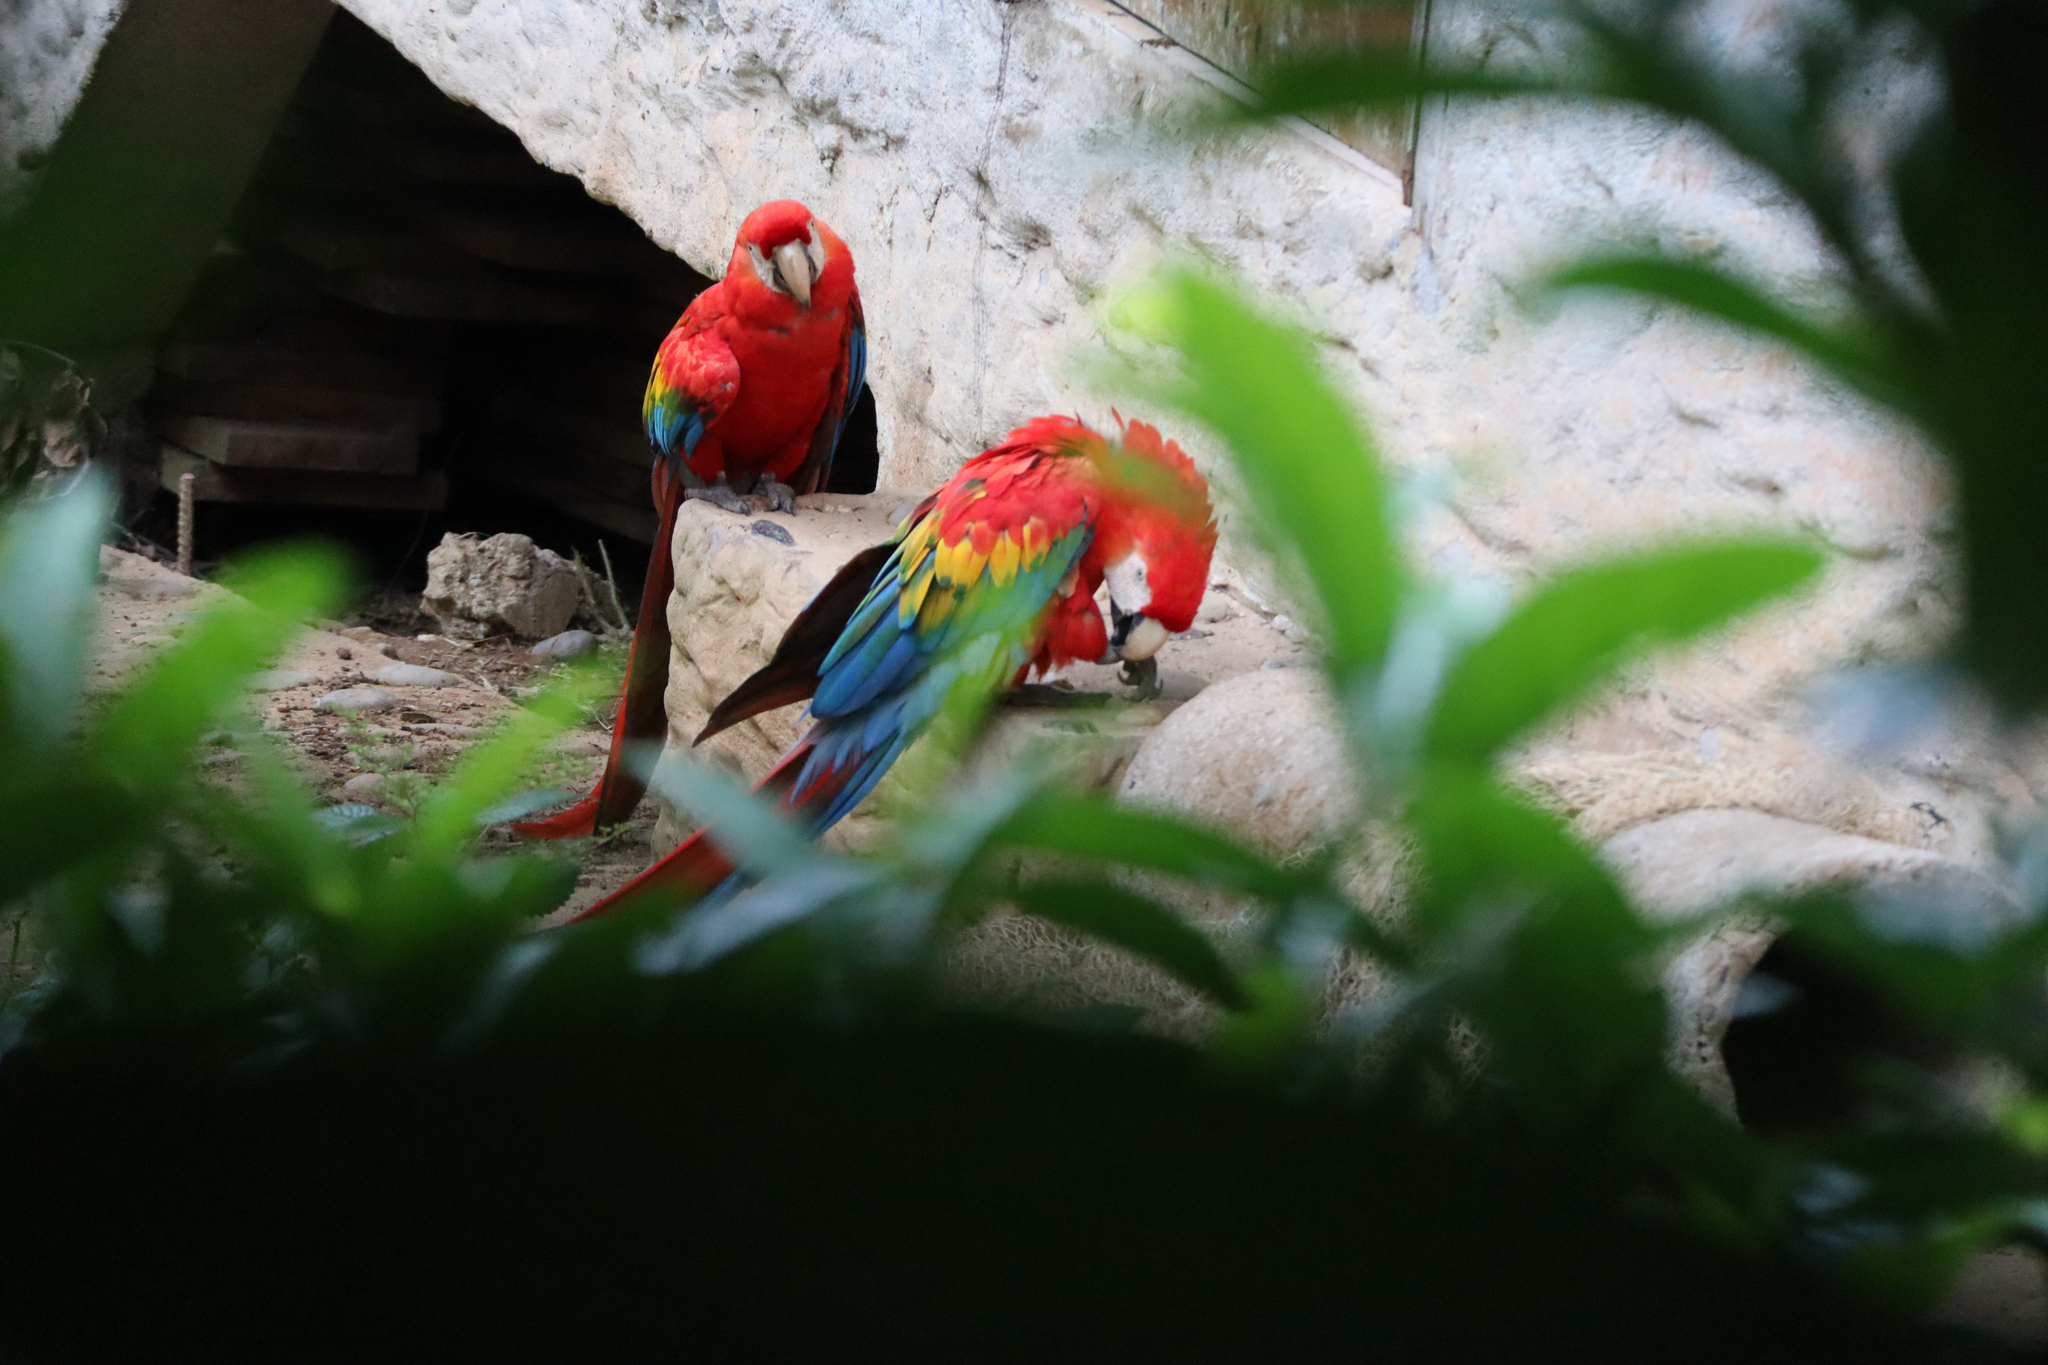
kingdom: Animalia
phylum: Chordata
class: Aves
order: Psittaciformes
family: Psittacidae
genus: Ara
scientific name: Ara macao
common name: Scarlet macaw
